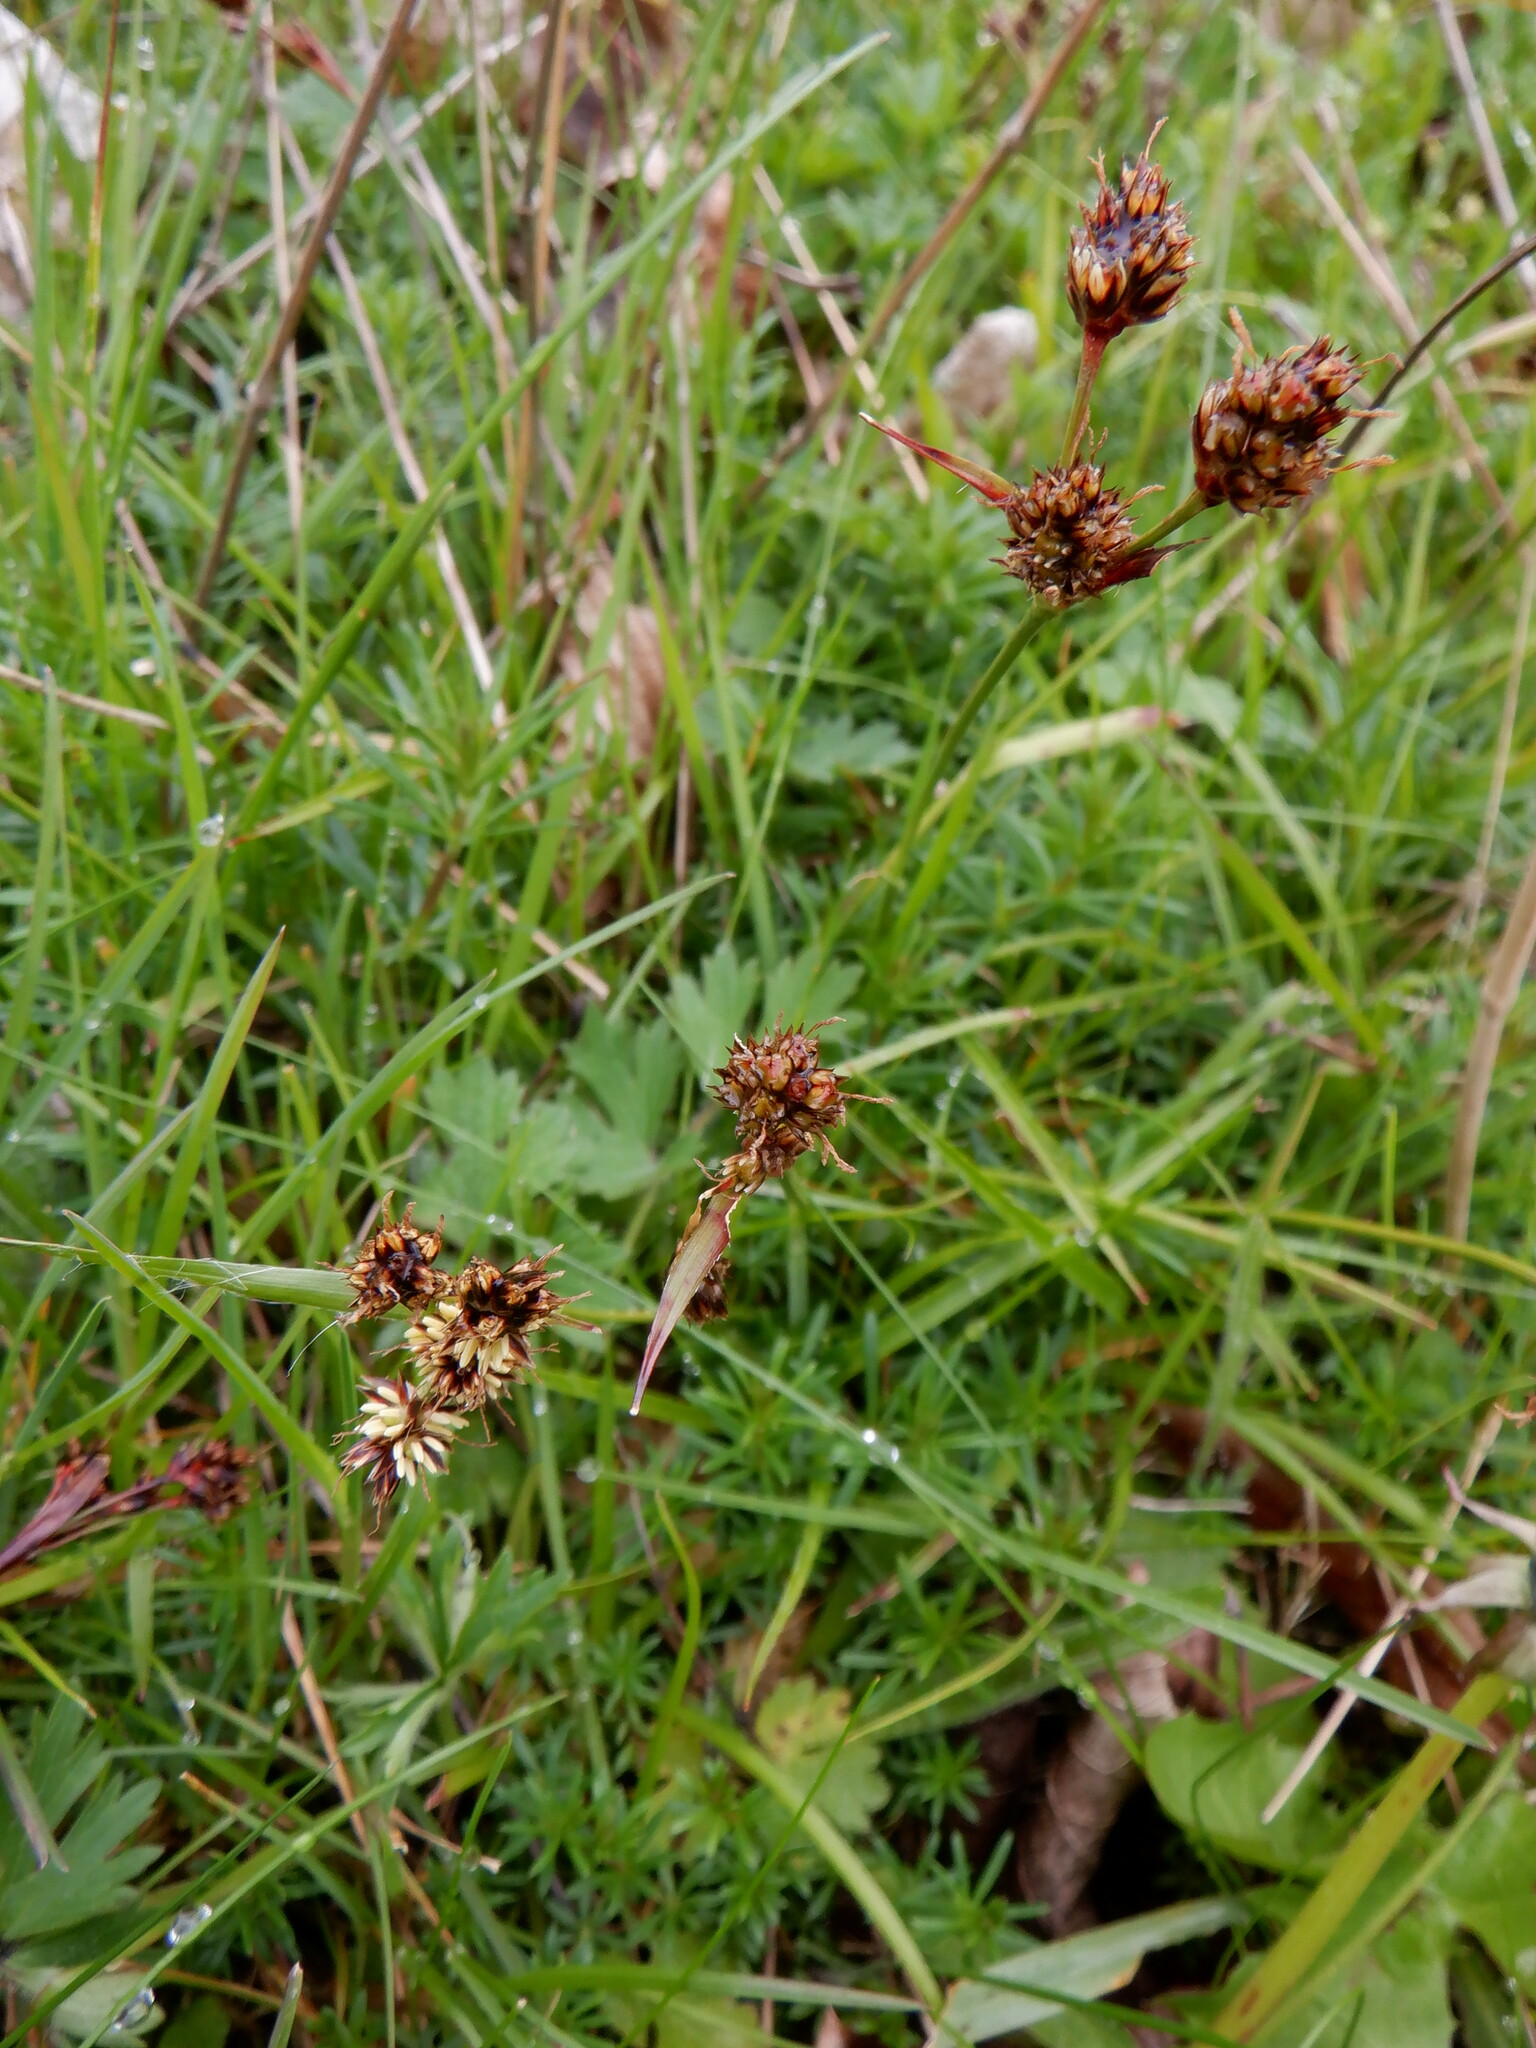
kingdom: Plantae
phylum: Tracheophyta
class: Liliopsida
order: Poales
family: Juncaceae
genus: Luzula
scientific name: Luzula campestris
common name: Field wood-rush
